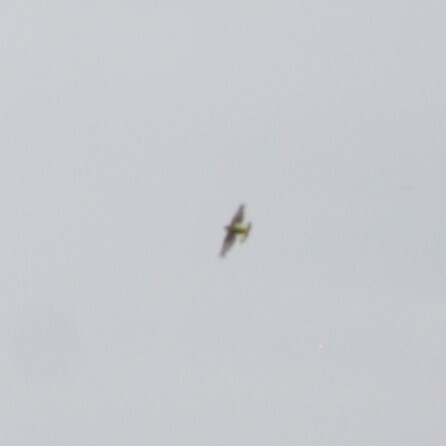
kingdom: Animalia
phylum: Chordata
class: Aves
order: Falconiformes
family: Falconidae
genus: Falco
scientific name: Falco tinnunculus
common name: Common kestrel
